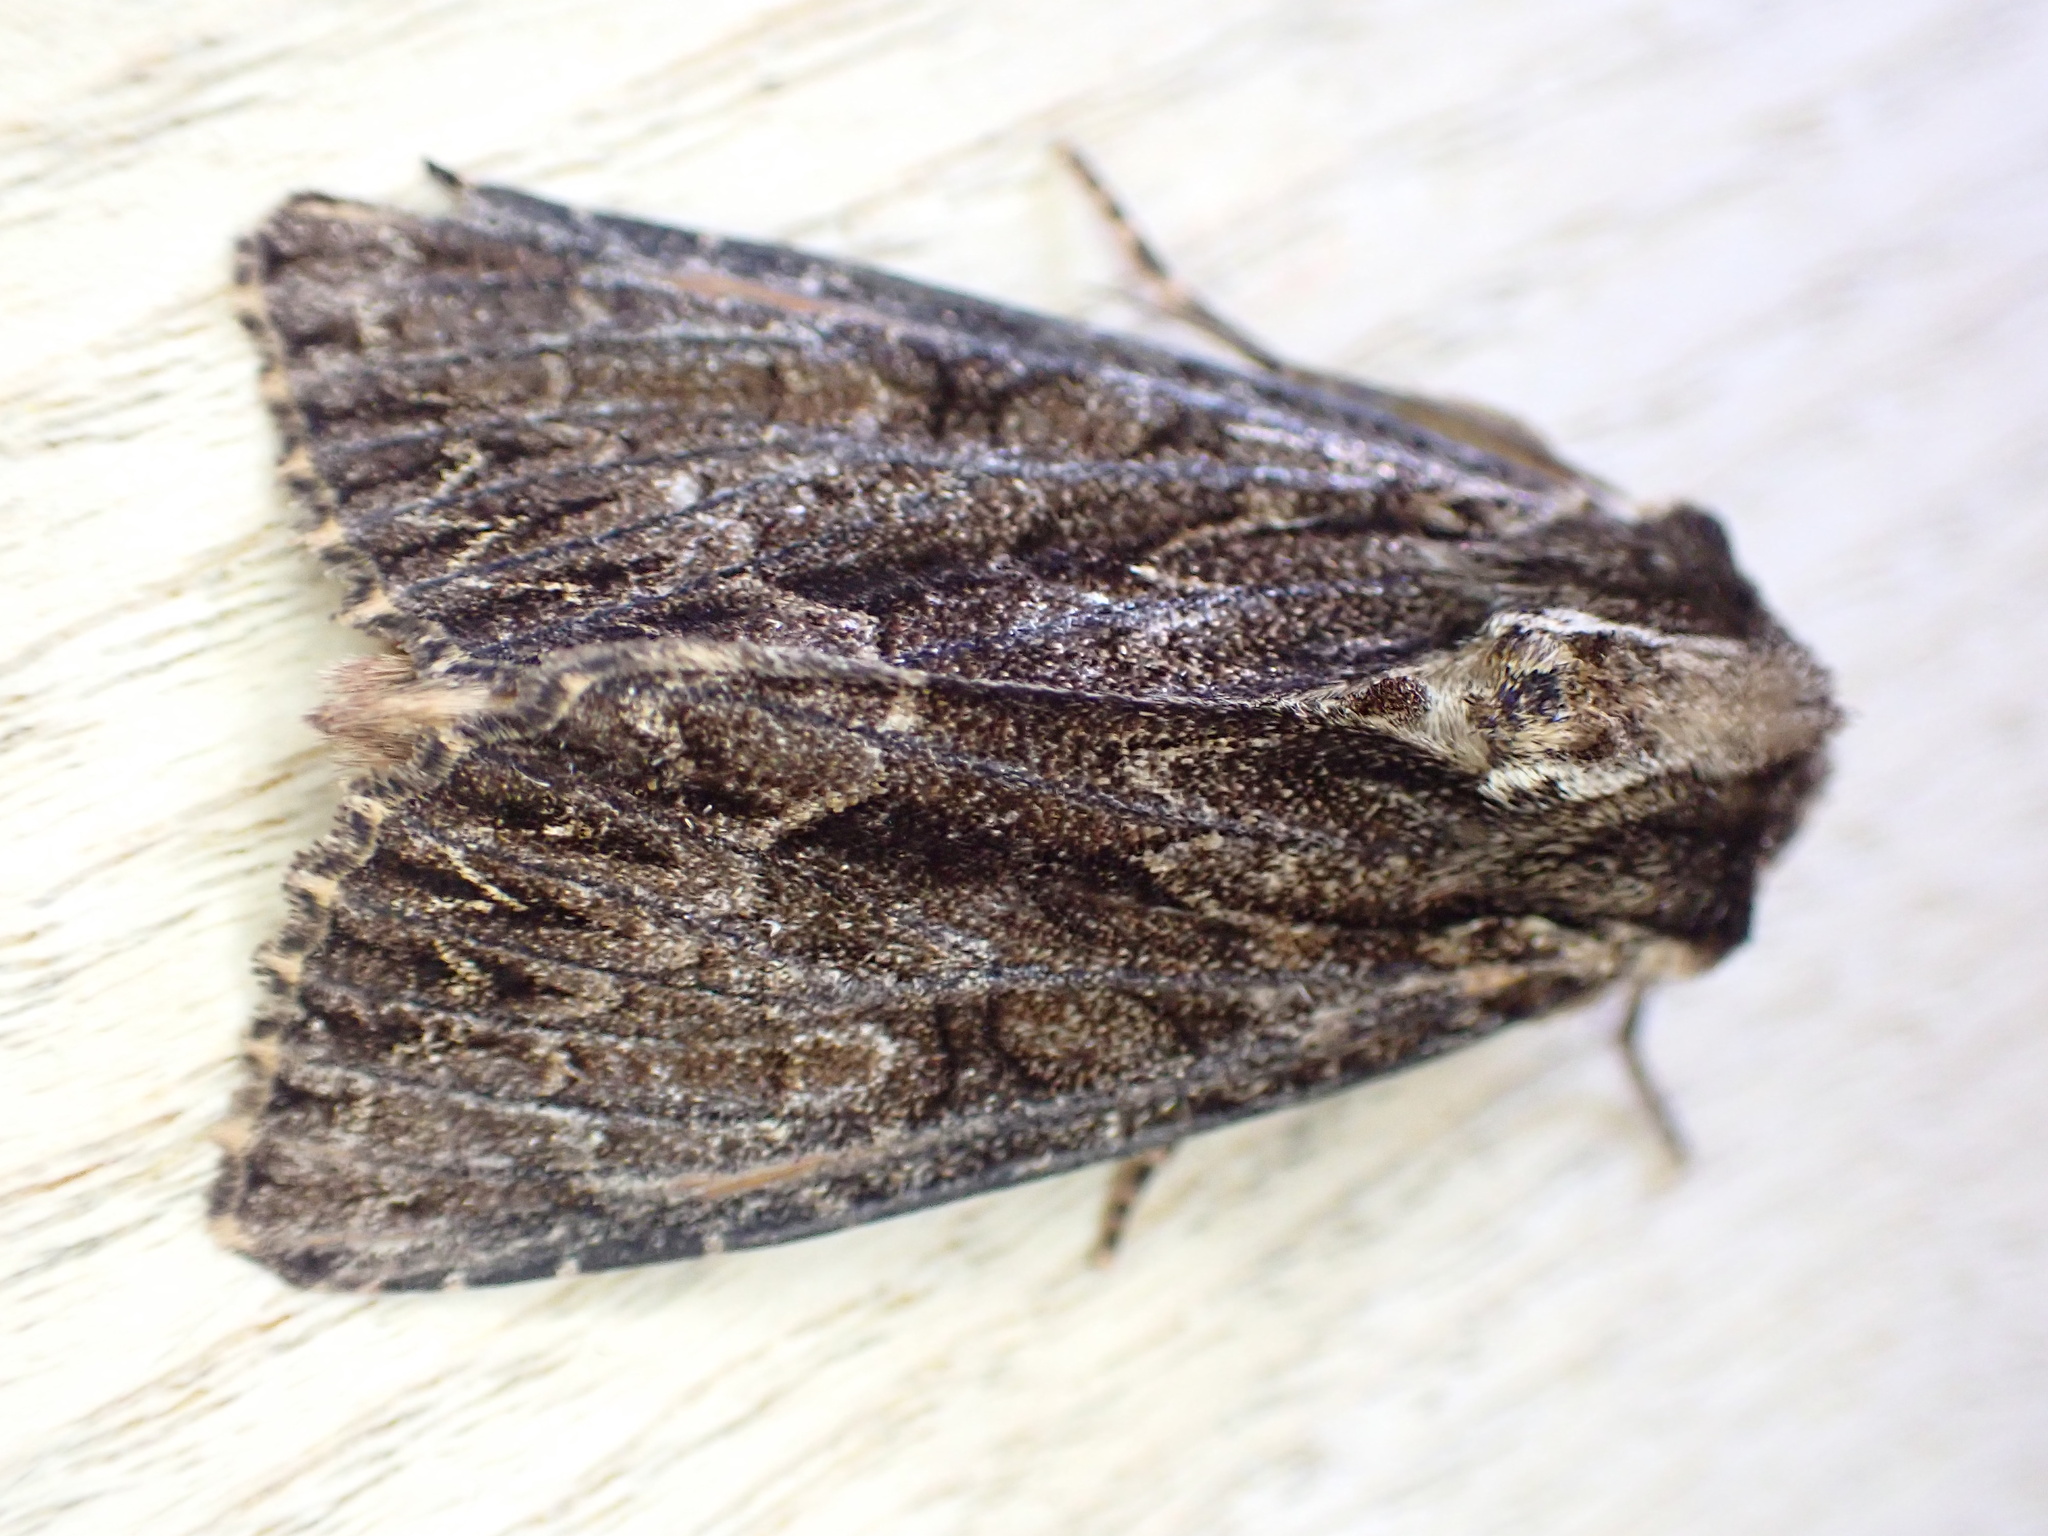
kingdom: Animalia
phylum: Arthropoda
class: Insecta
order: Lepidoptera
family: Noctuidae
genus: Apamea
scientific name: Apamea monoglypha
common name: Dark arches
